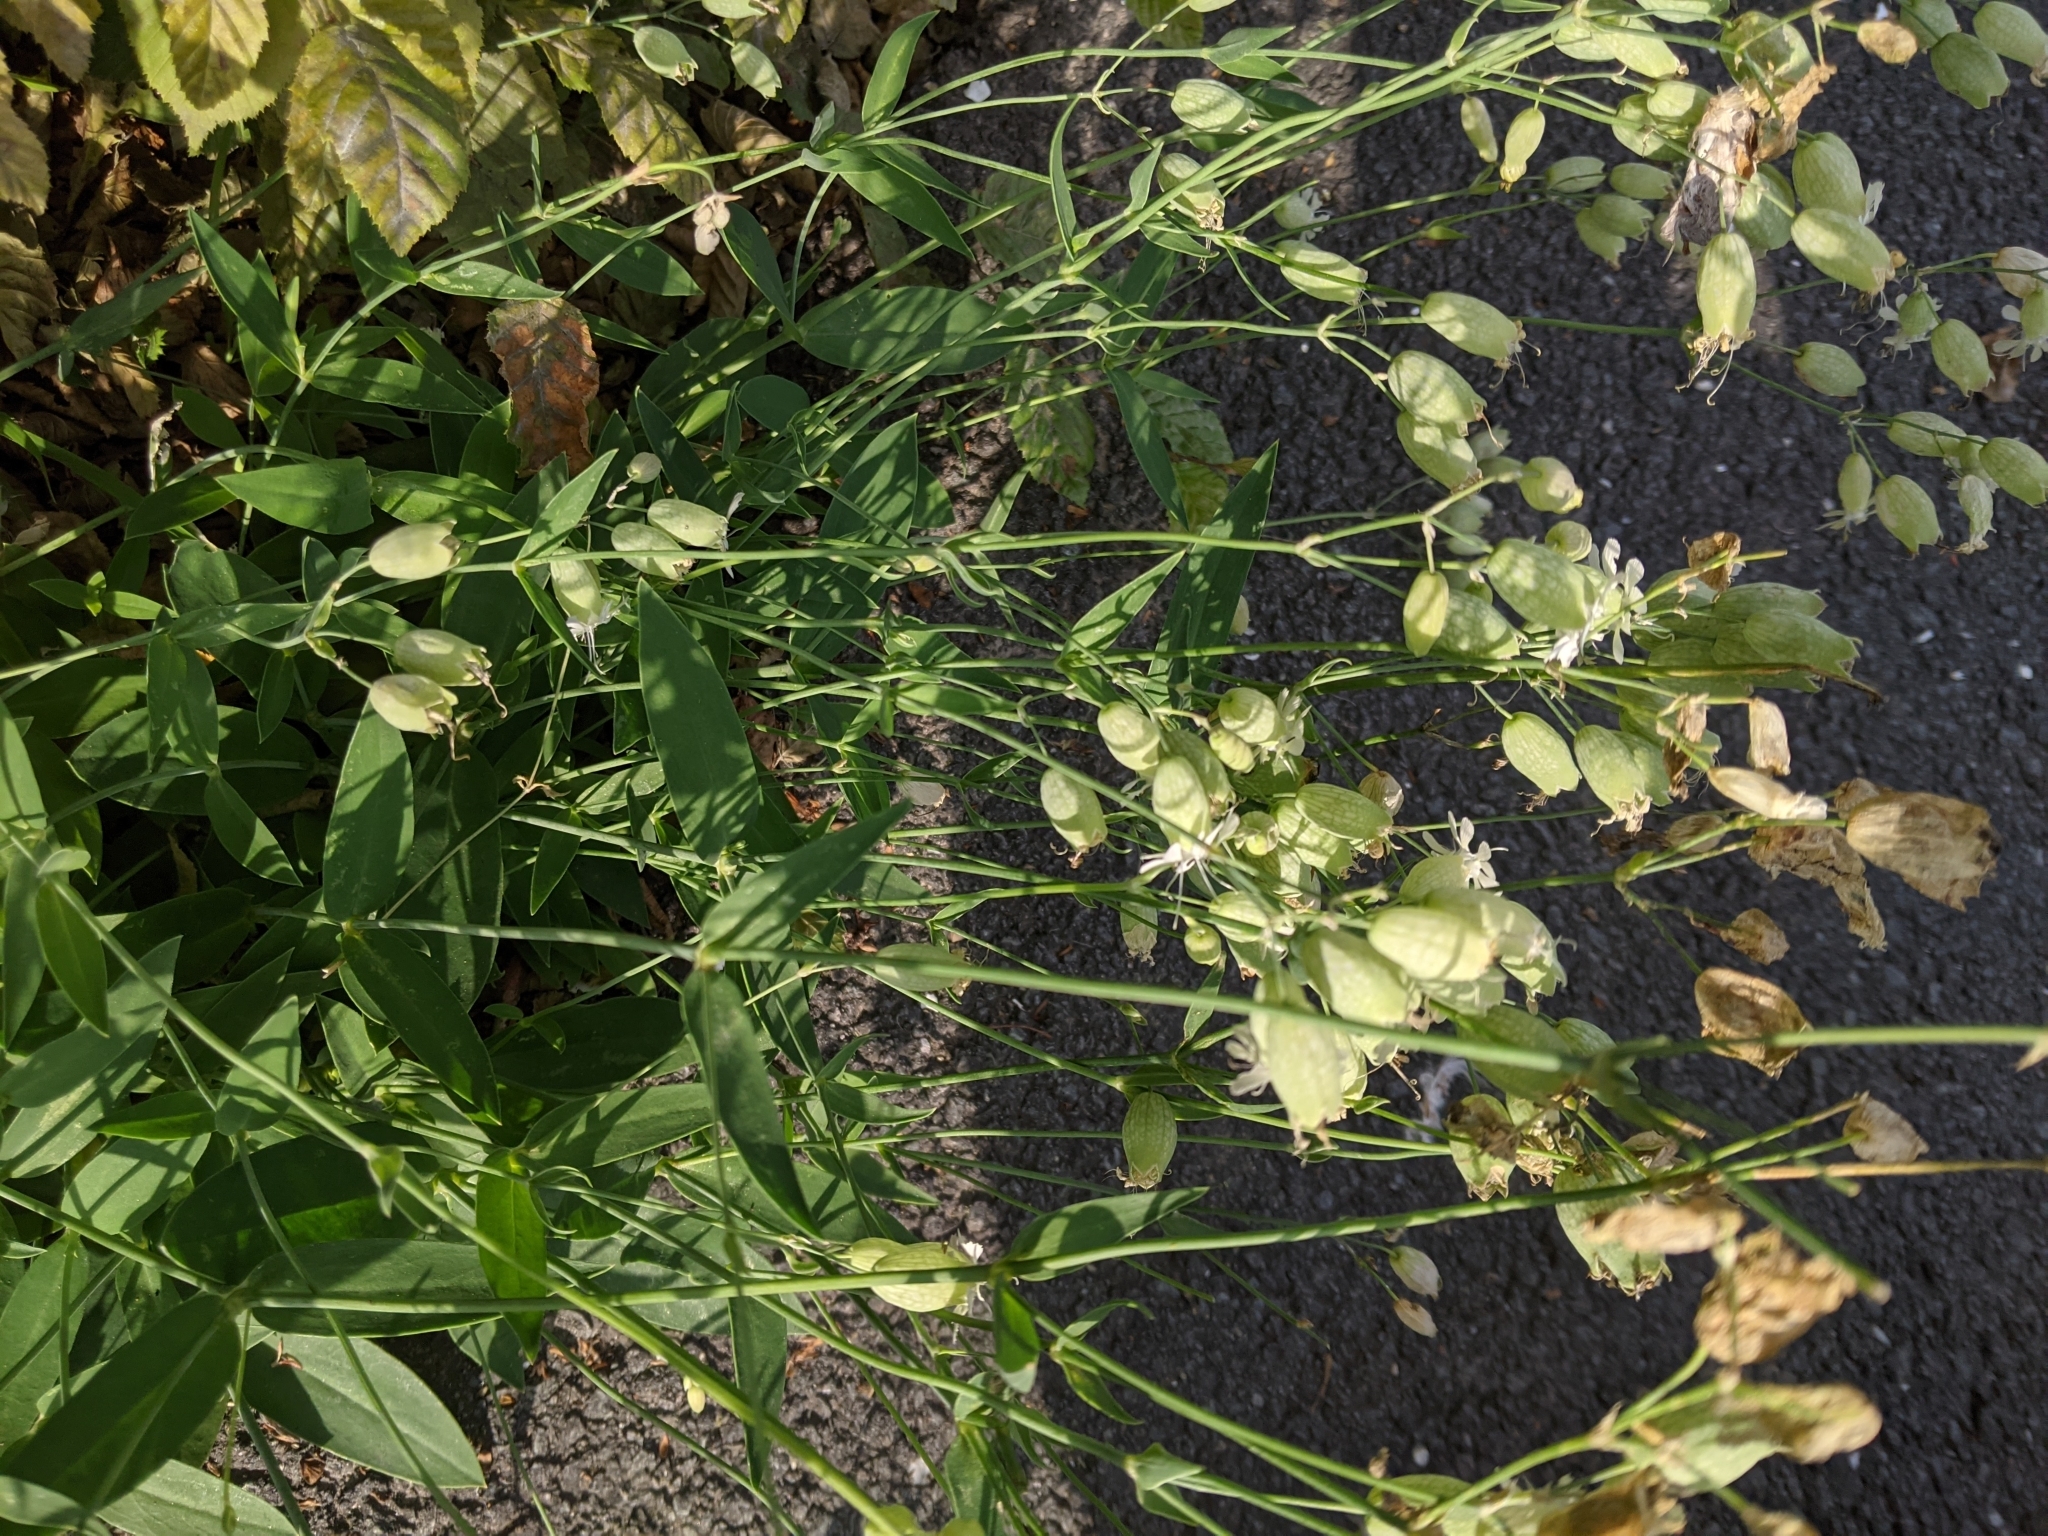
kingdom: Plantae
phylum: Tracheophyta
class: Magnoliopsida
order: Caryophyllales
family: Caryophyllaceae
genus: Silene
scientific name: Silene vulgaris
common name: Bladder campion
